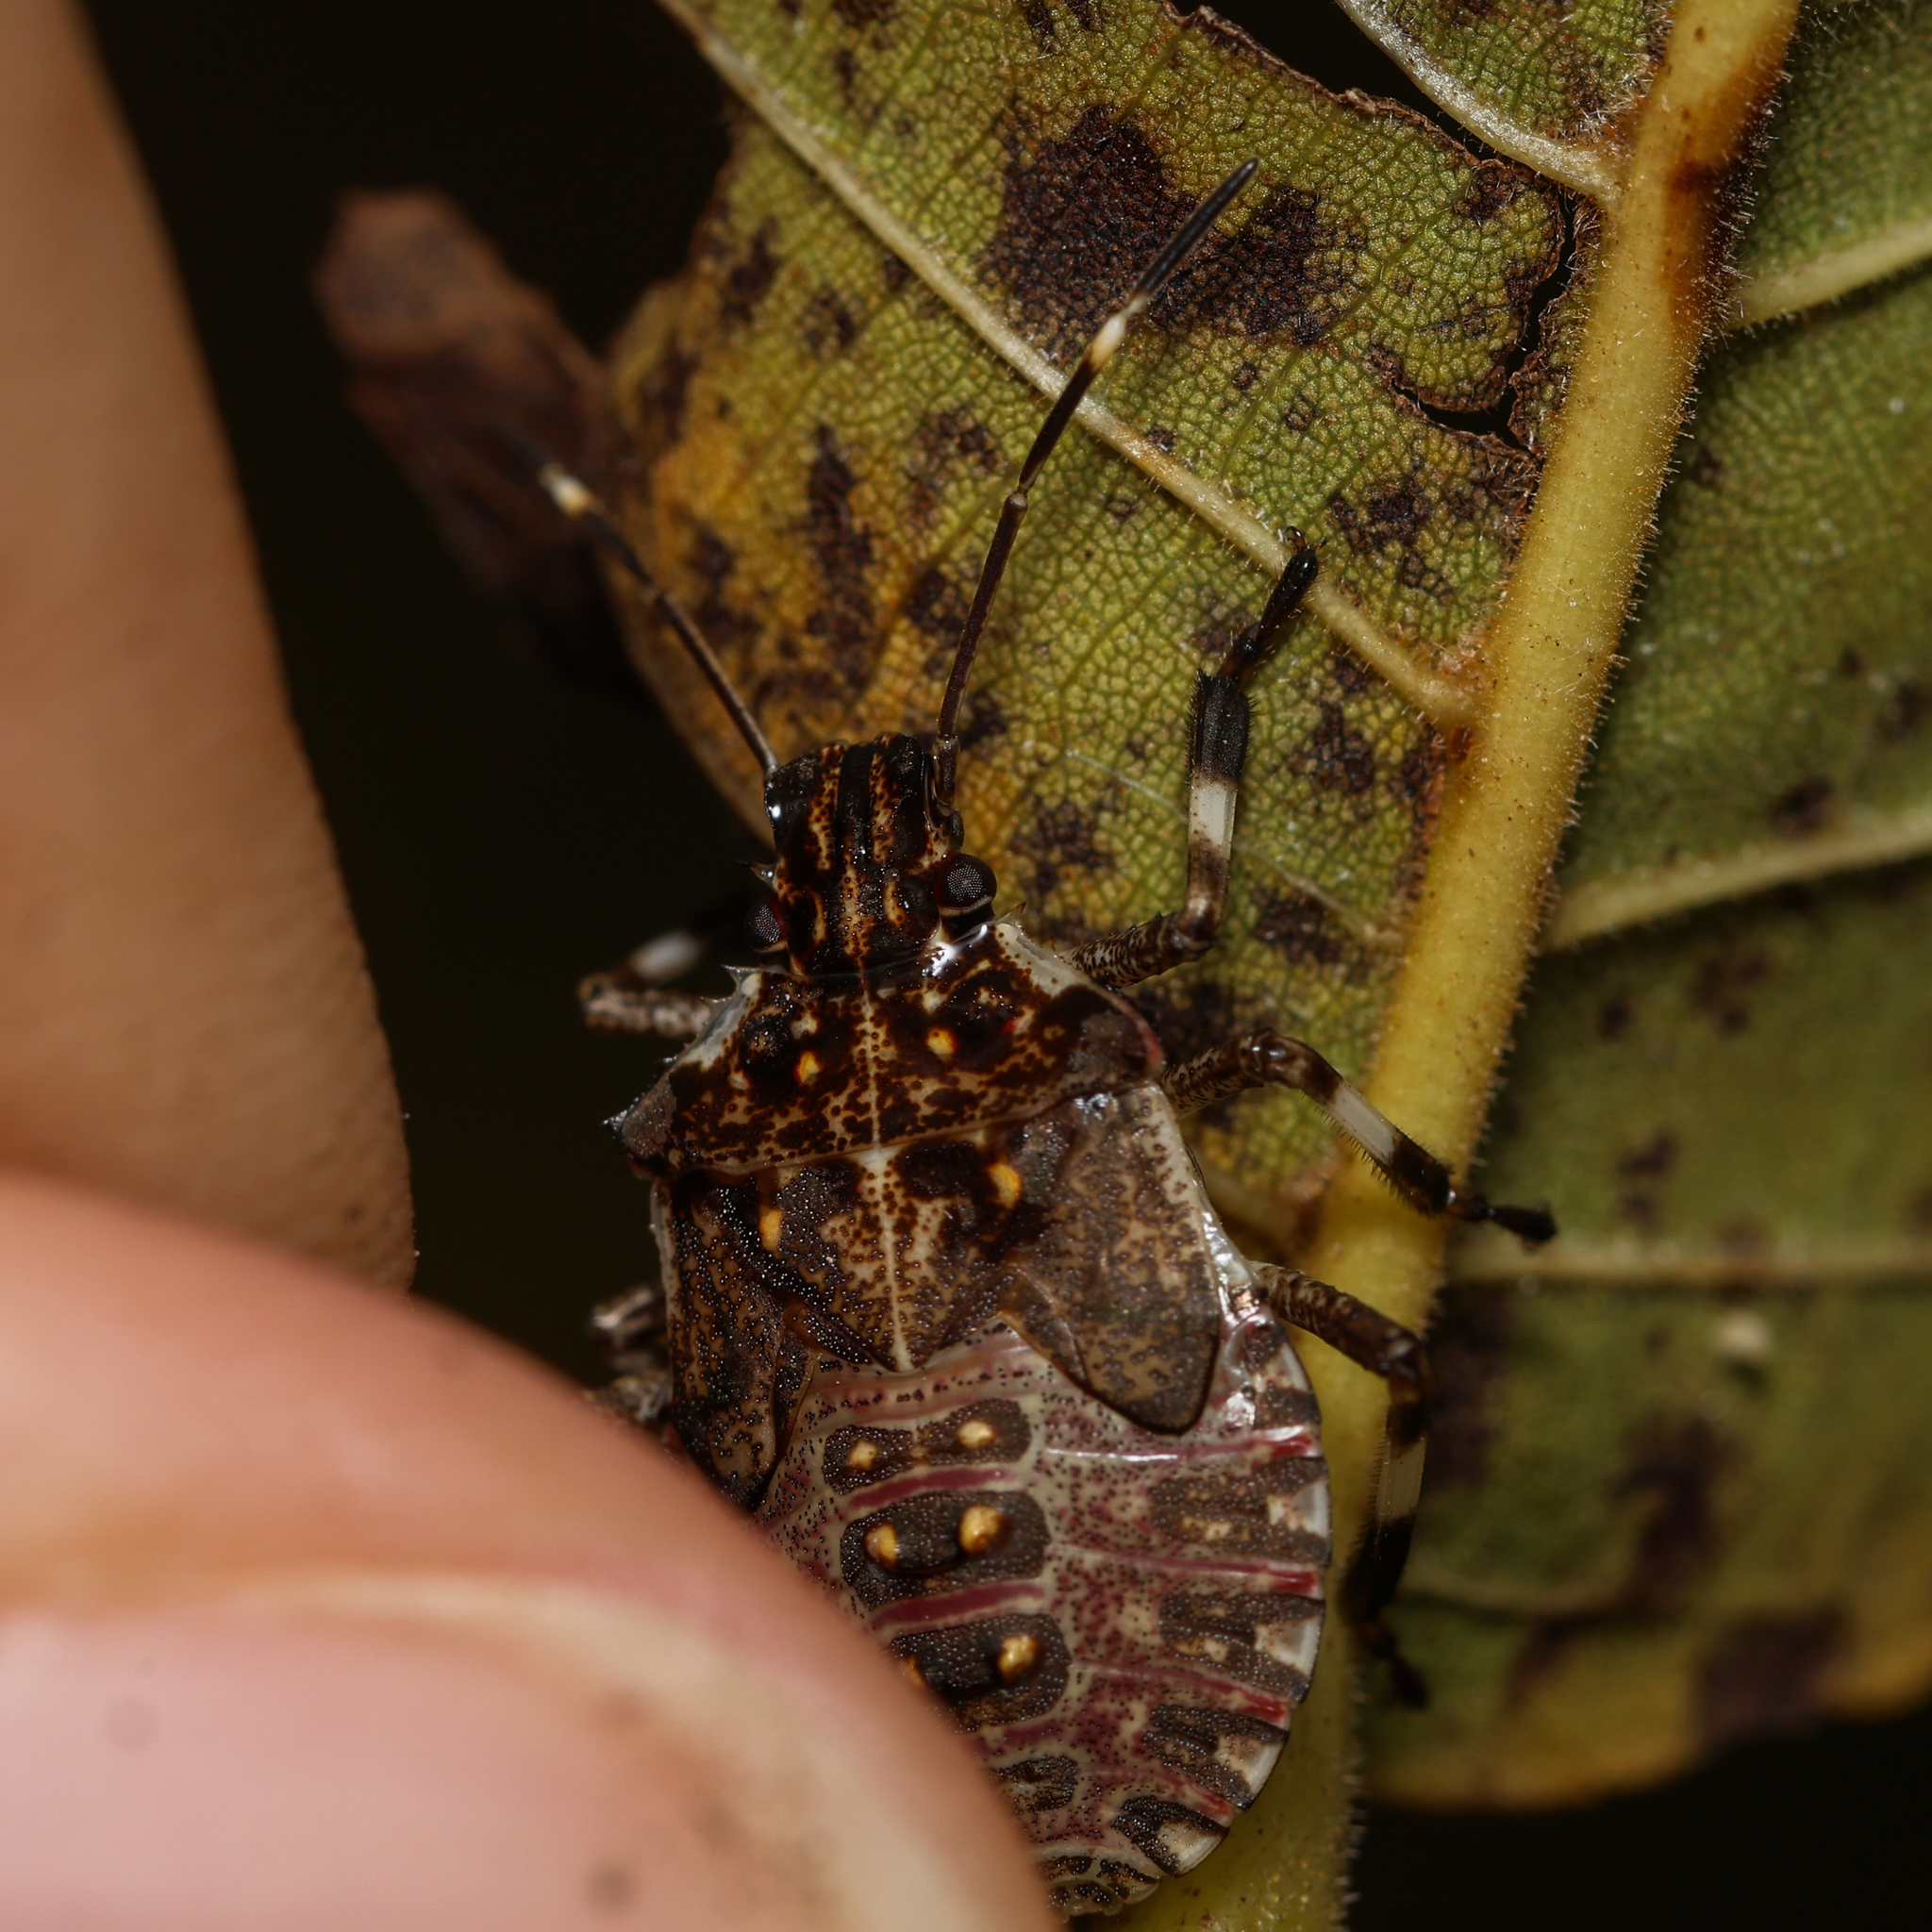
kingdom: Animalia
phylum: Arthropoda
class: Insecta
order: Hemiptera
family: Pentatomidae
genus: Halyomorpha
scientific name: Halyomorpha halys
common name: Brown marmorated stink bug
